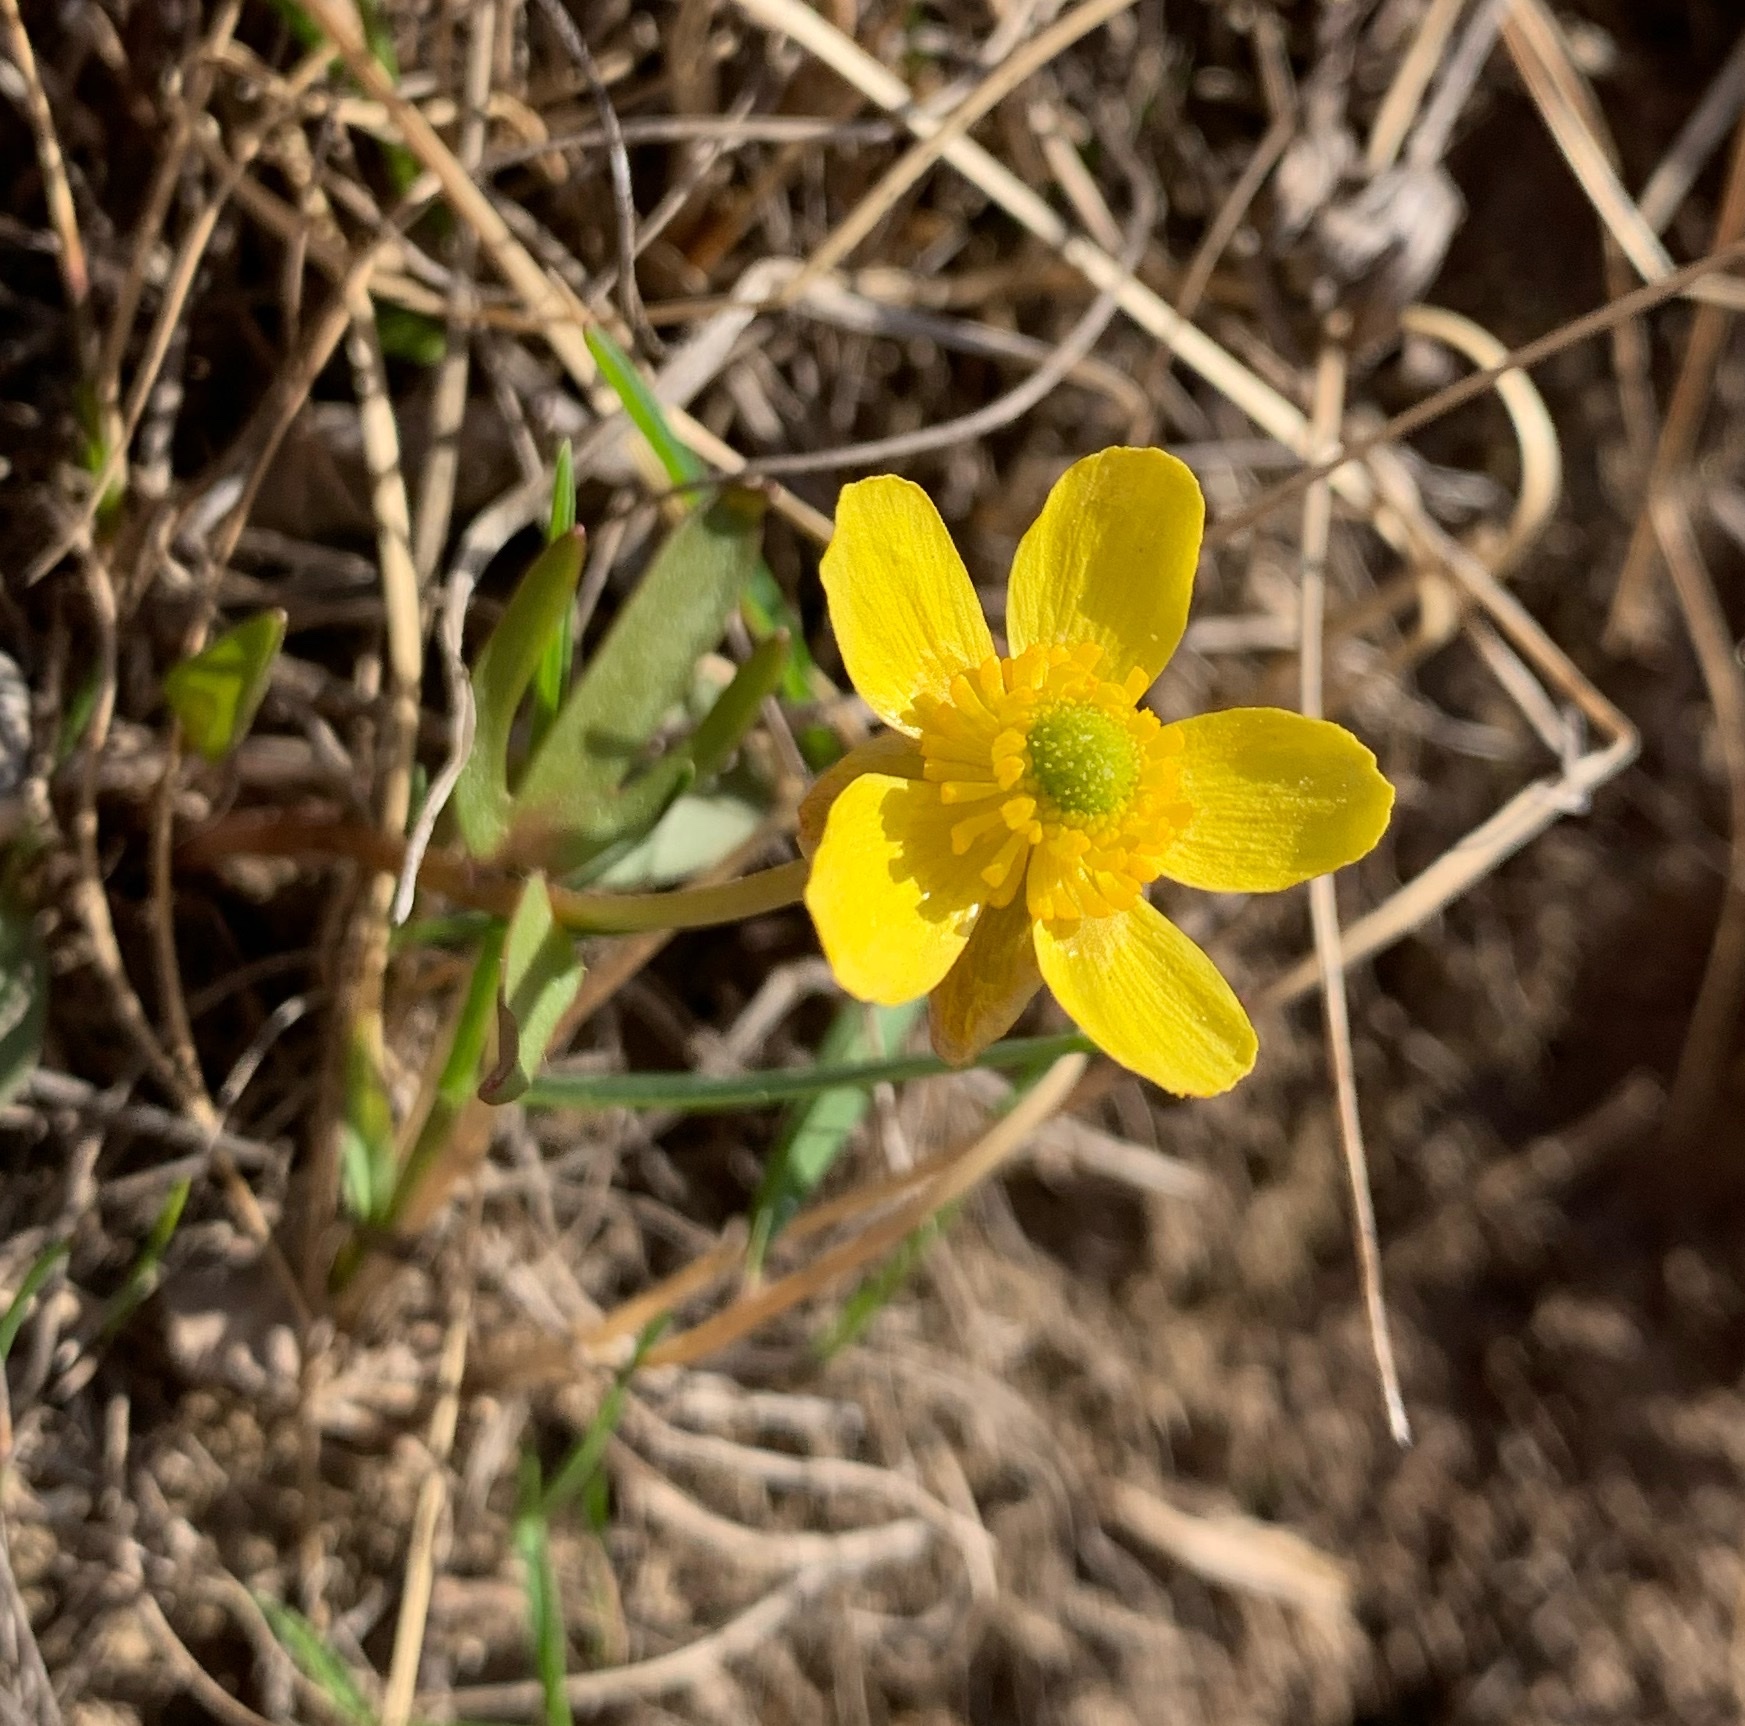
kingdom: Plantae
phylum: Tracheophyta
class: Magnoliopsida
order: Ranunculales
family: Ranunculaceae
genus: Ranunculus
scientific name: Ranunculus glaberrimus
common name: Sagebrush buttercup
